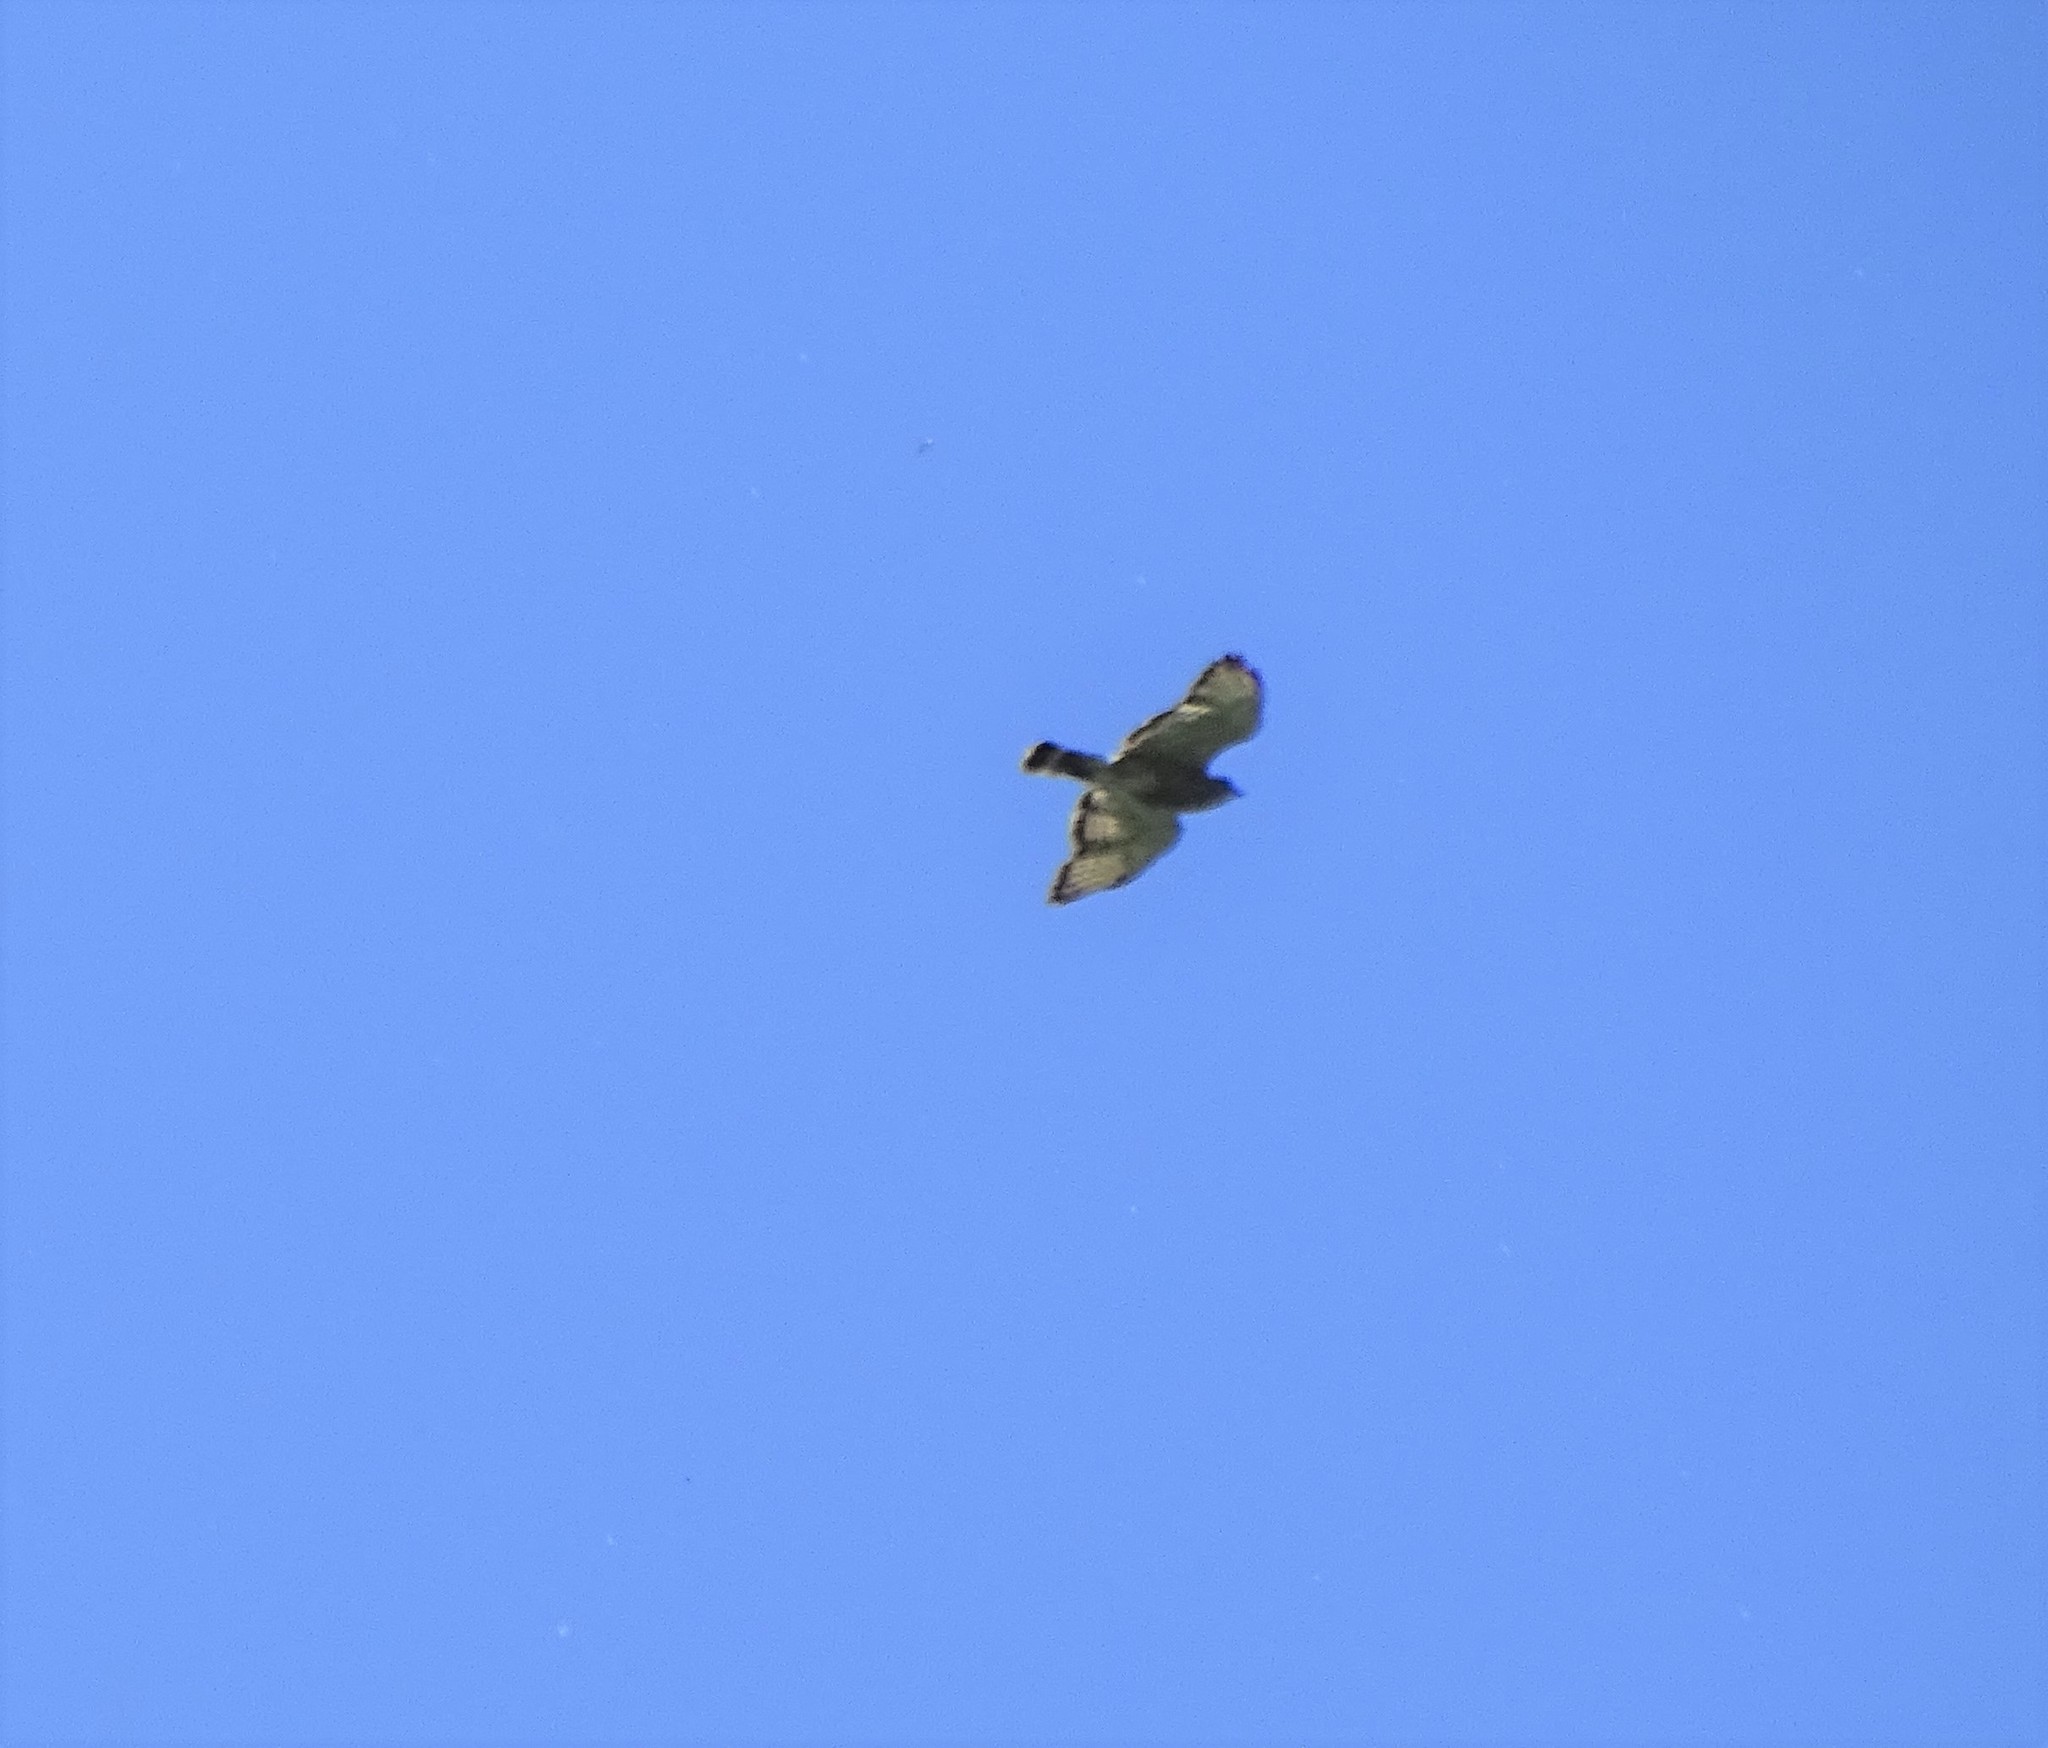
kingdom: Animalia
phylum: Chordata
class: Aves
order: Accipitriformes
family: Accipitridae
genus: Buteo
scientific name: Buteo platypterus
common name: Broad-winged hawk
